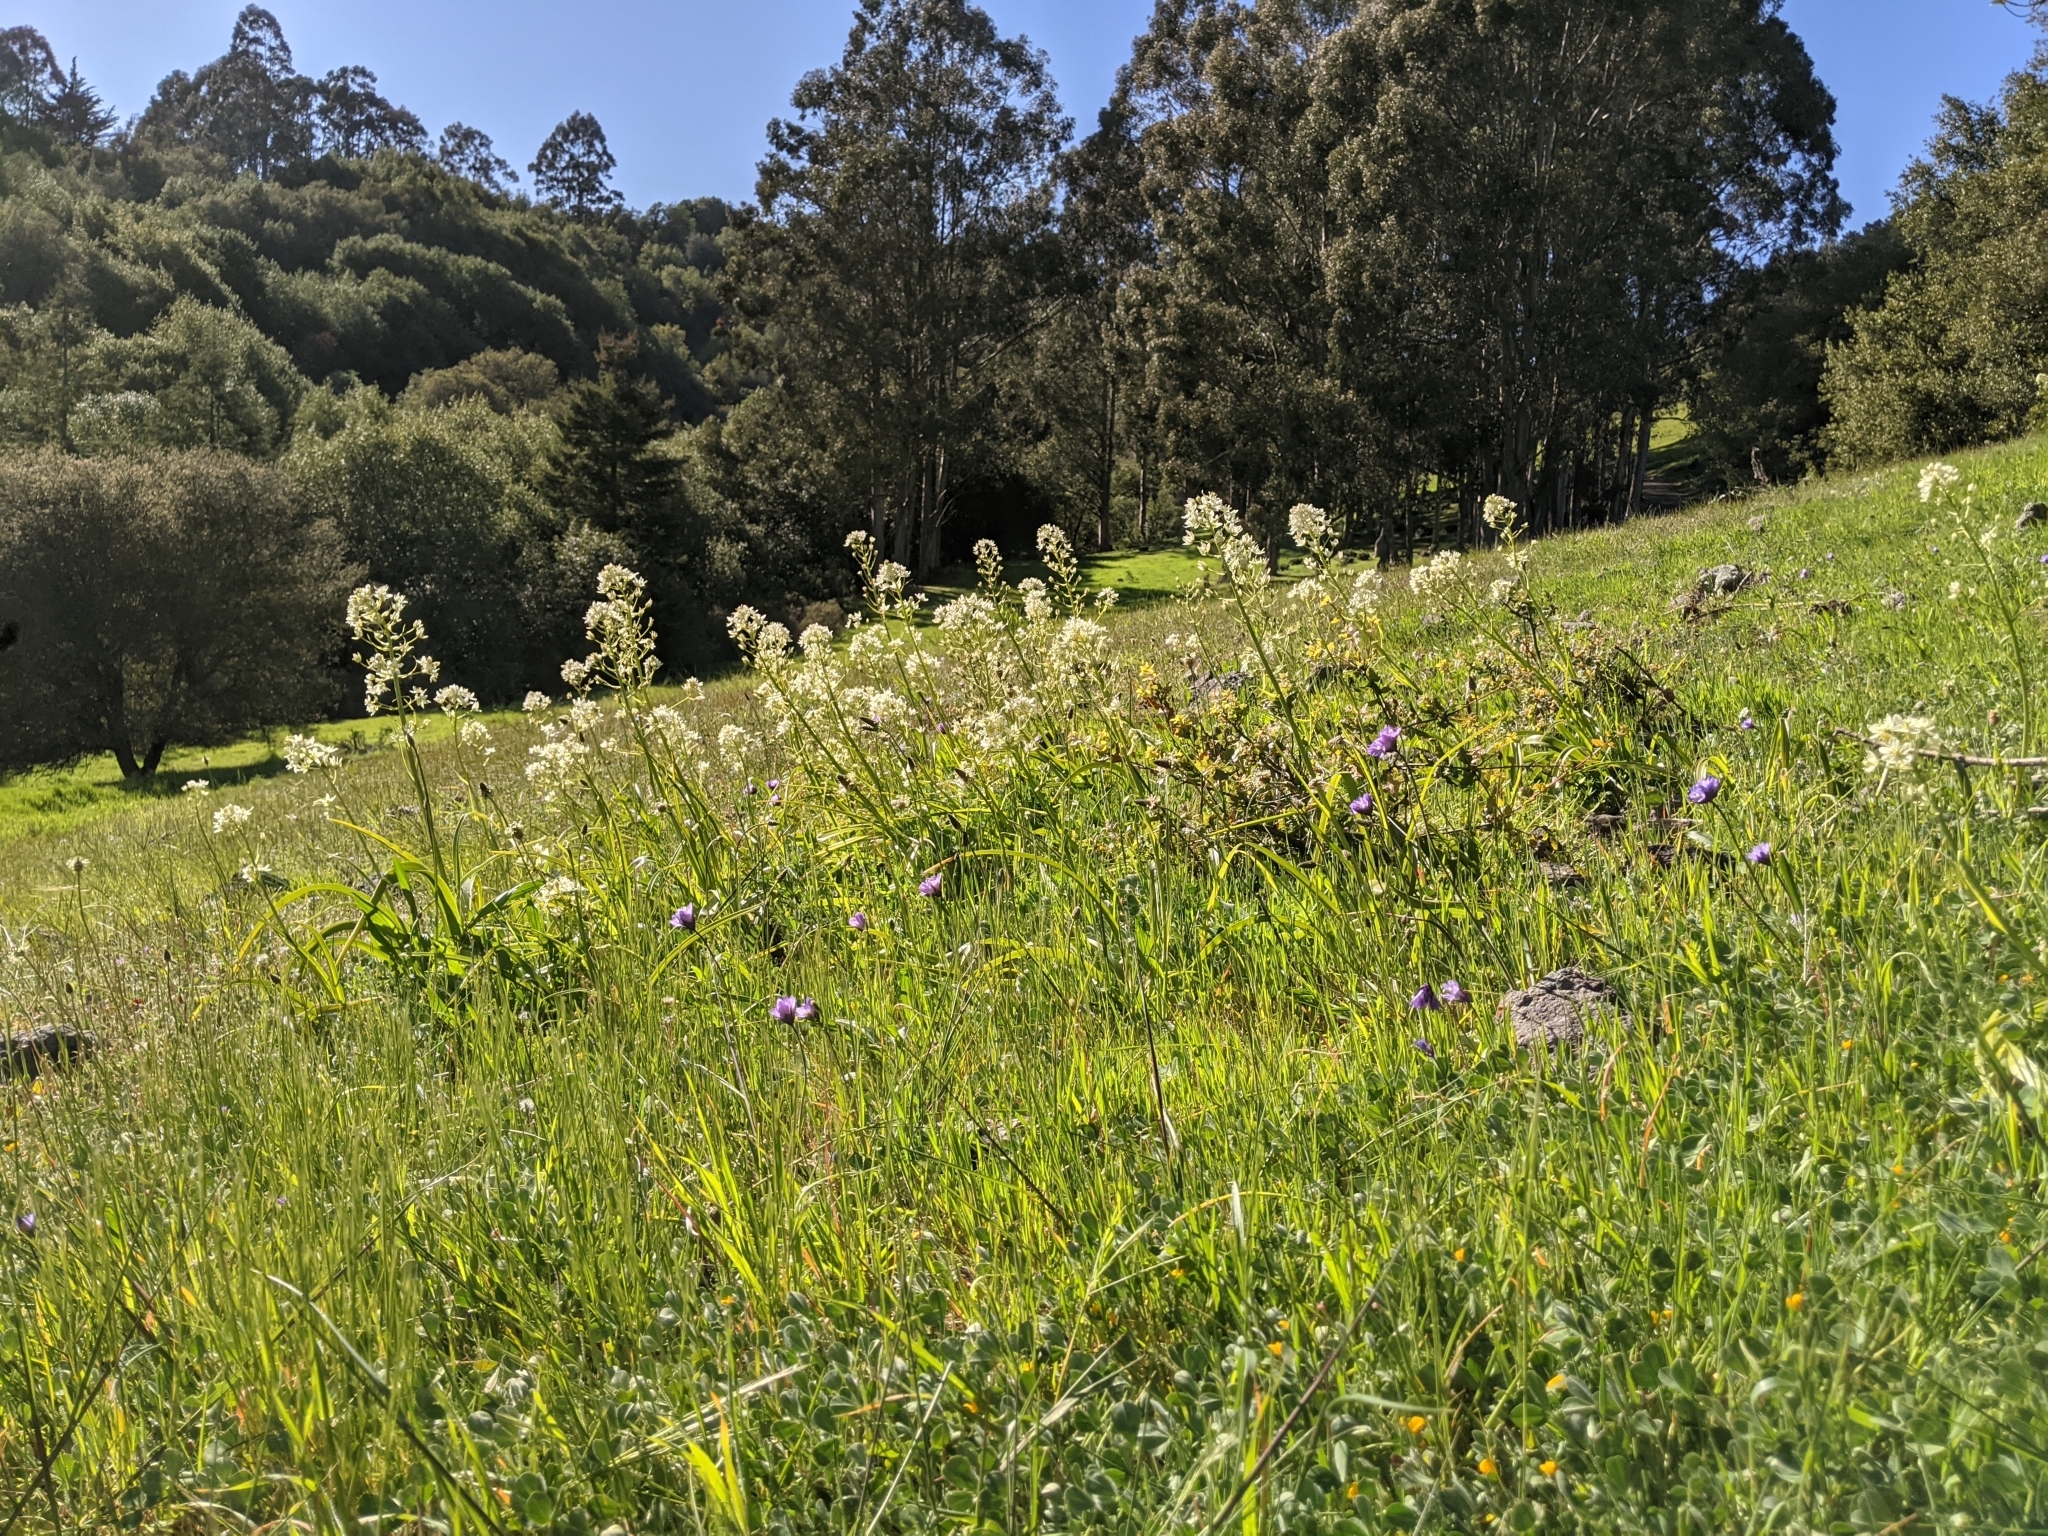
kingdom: Plantae
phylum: Tracheophyta
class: Liliopsida
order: Liliales
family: Melanthiaceae
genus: Toxicoscordion
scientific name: Toxicoscordion fremontii
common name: Fremont's death camas
